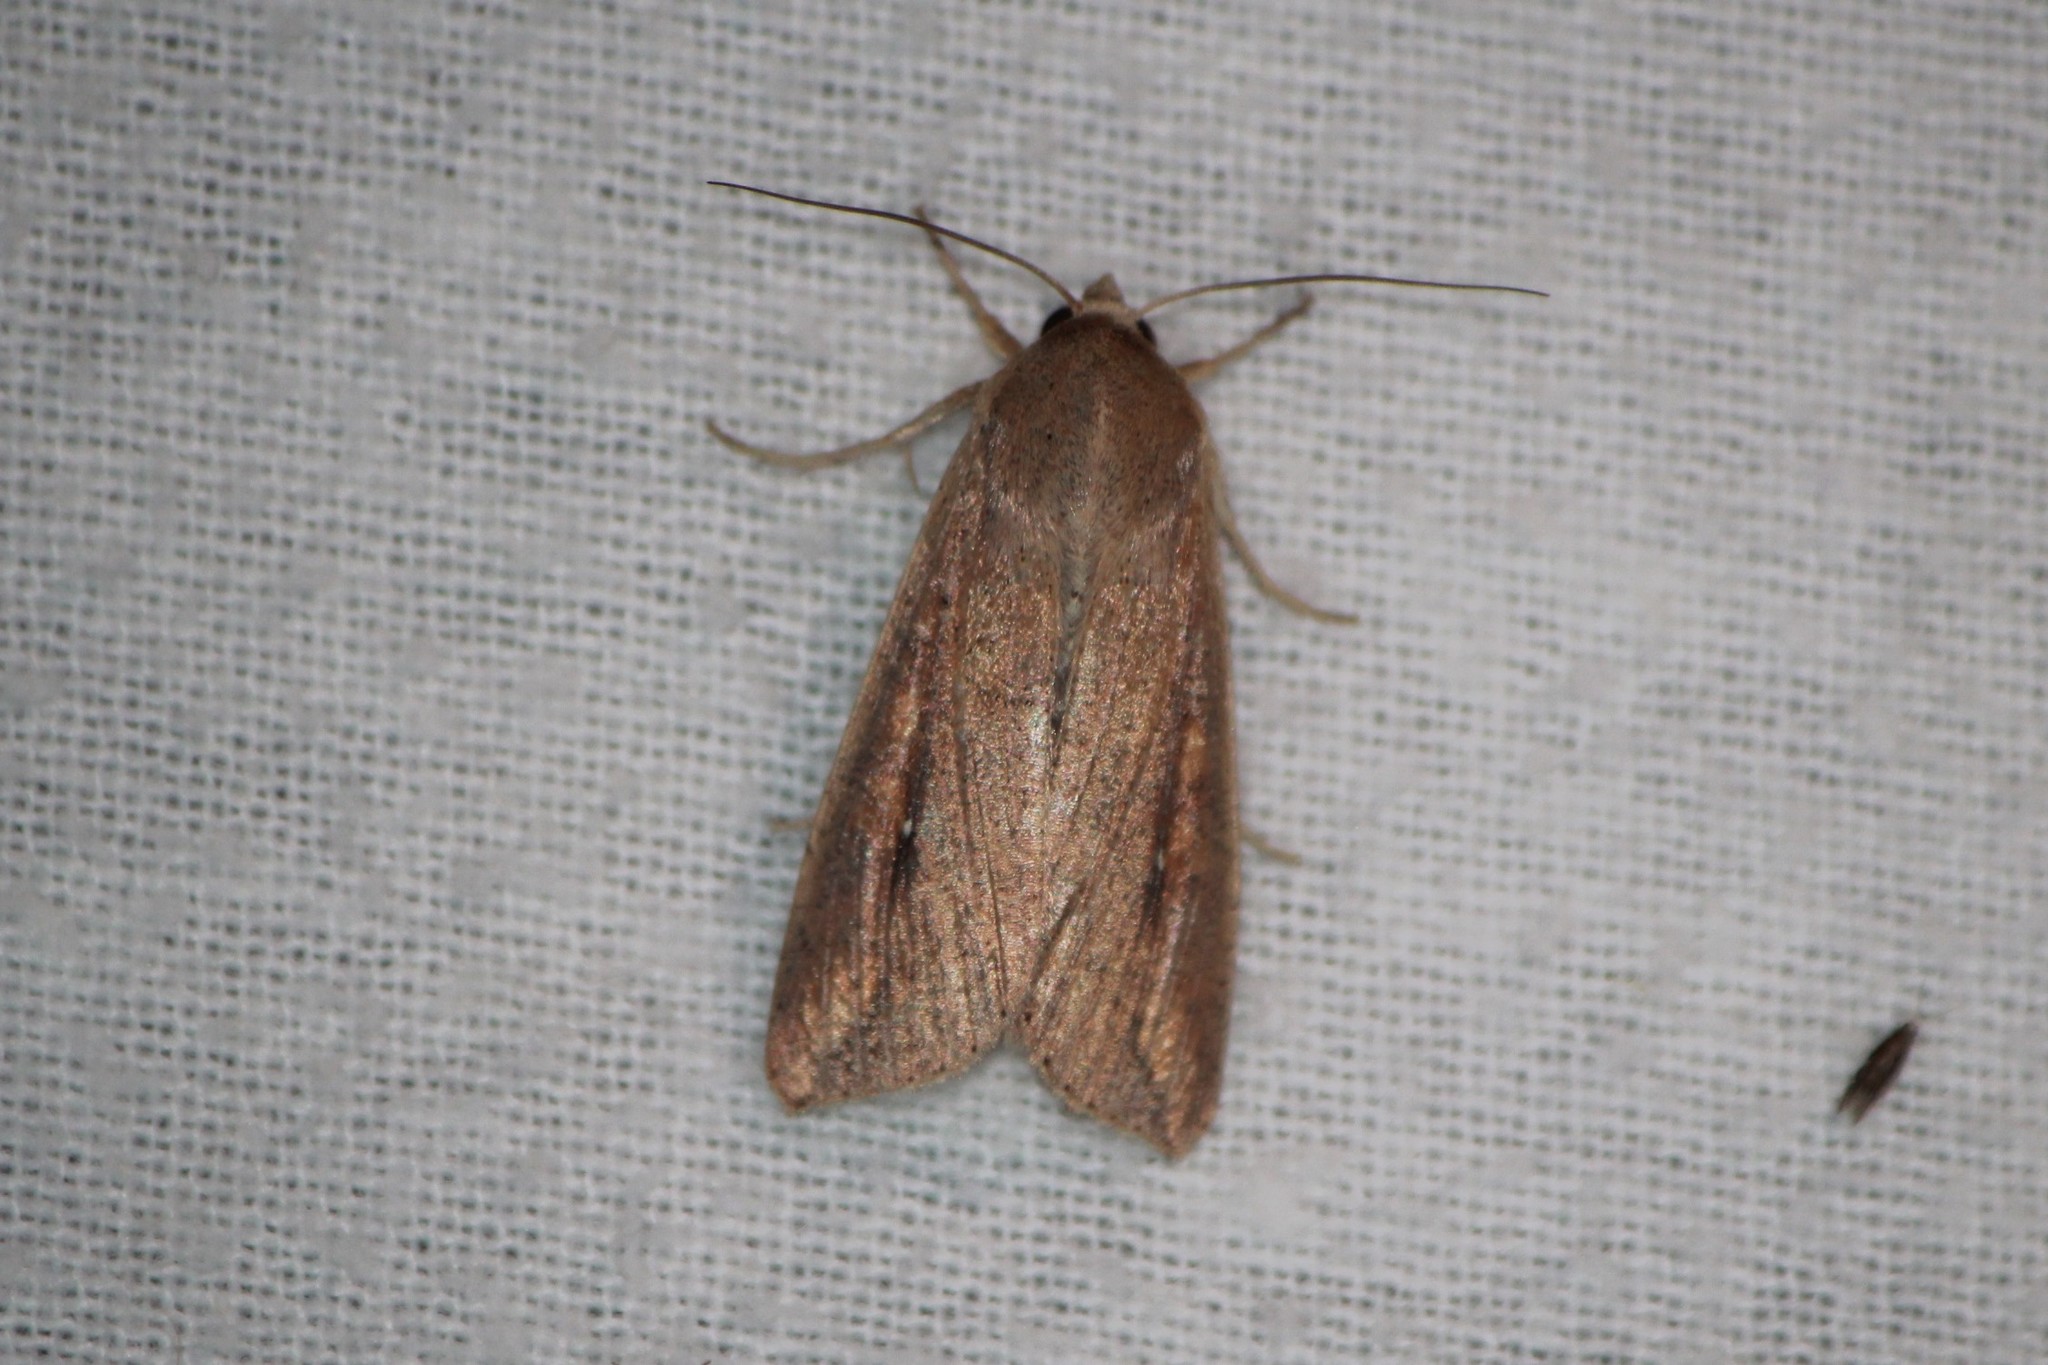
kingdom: Animalia
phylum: Arthropoda
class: Insecta
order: Lepidoptera
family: Noctuidae
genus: Mythimna
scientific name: Mythimna unipuncta
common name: White-speck
